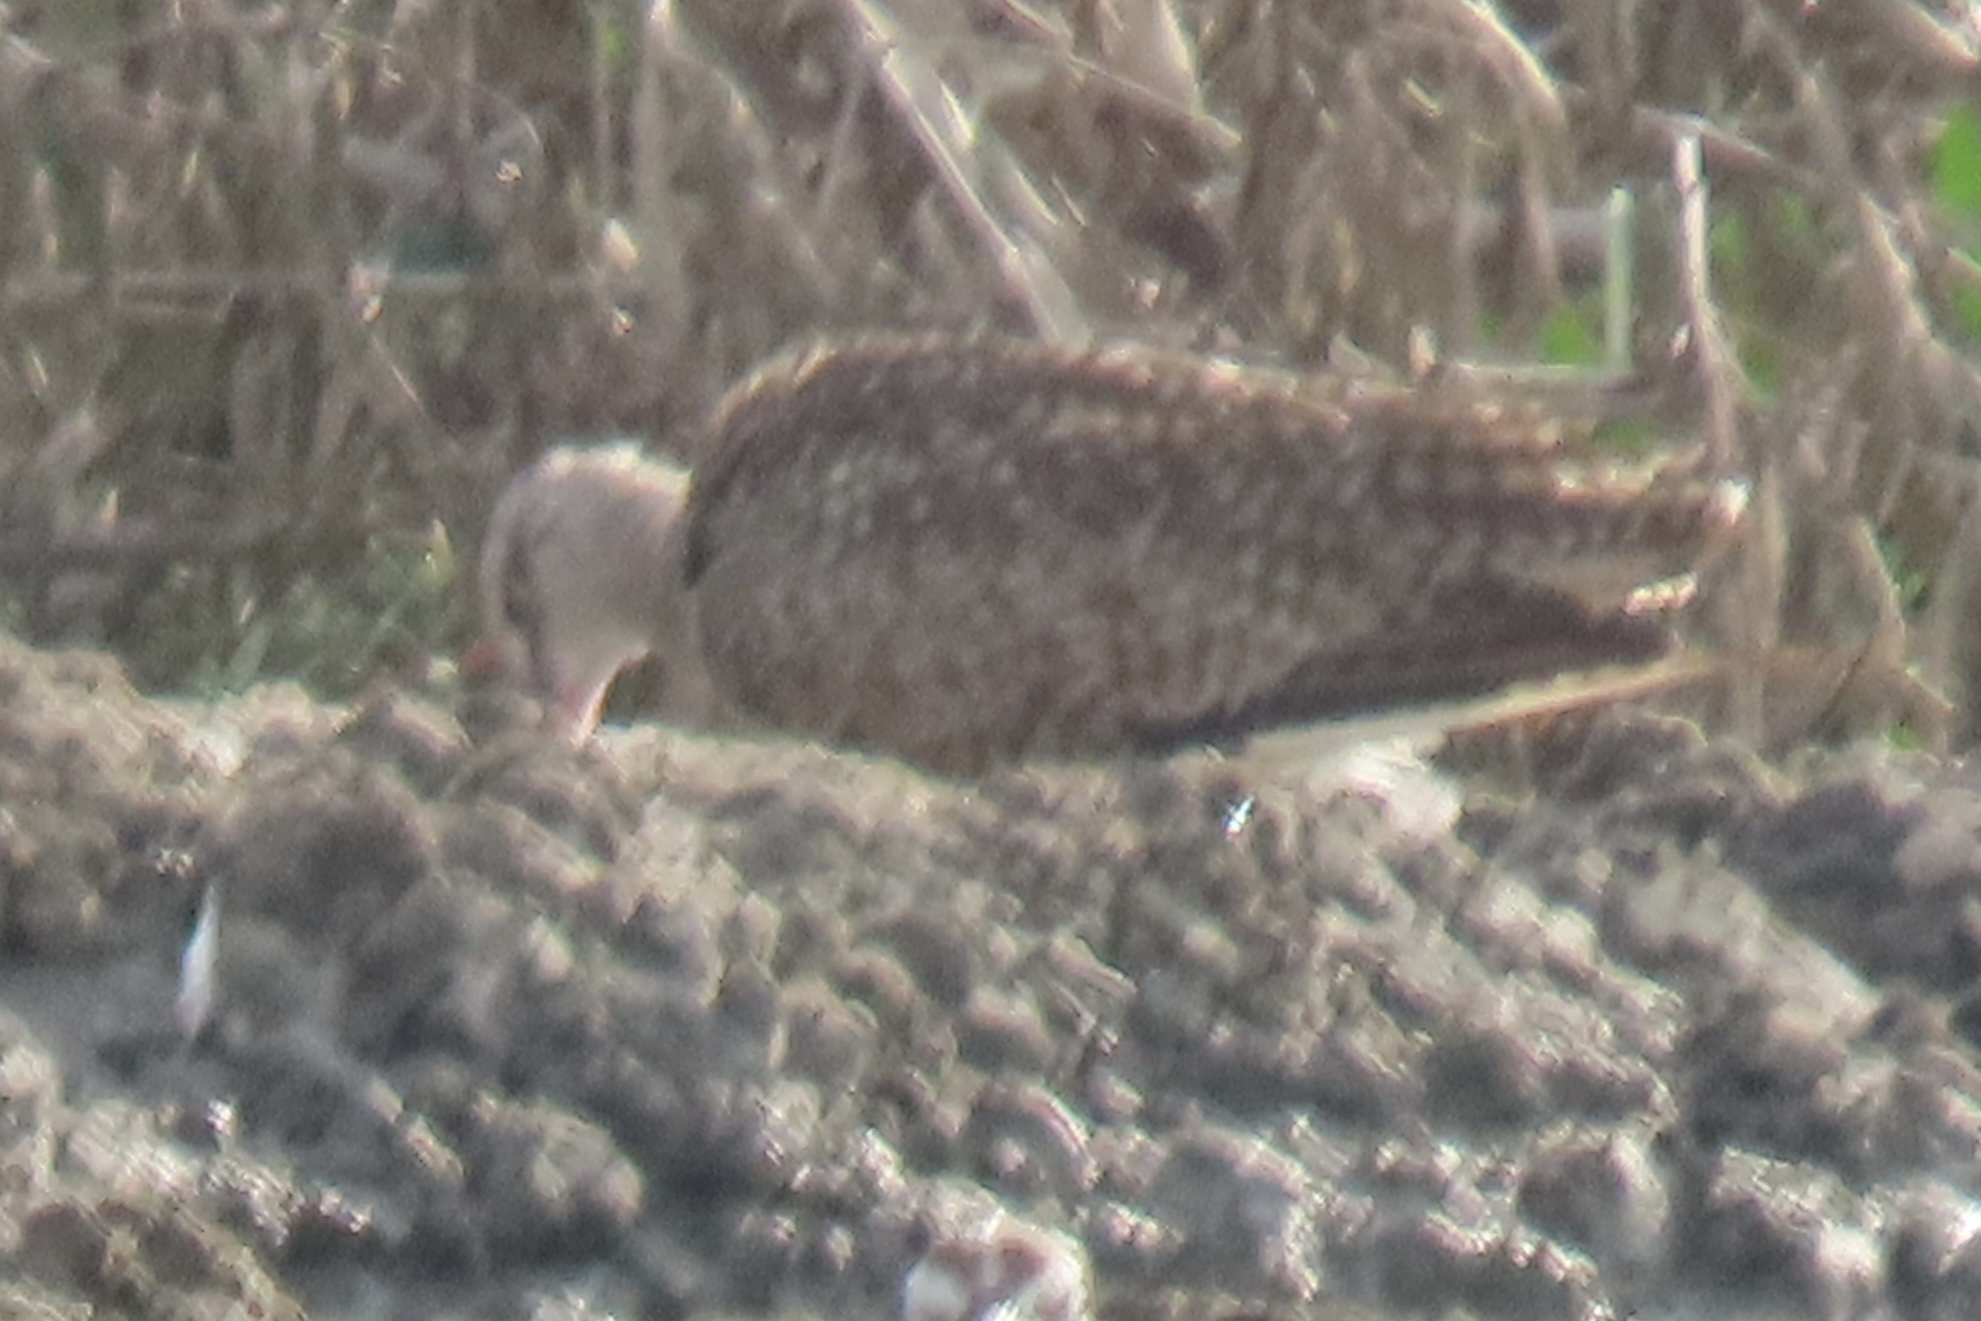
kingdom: Animalia
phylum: Chordata
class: Aves
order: Charadriiformes
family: Scolopacidae
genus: Numenius
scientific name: Numenius phaeopus
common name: Whimbrel
